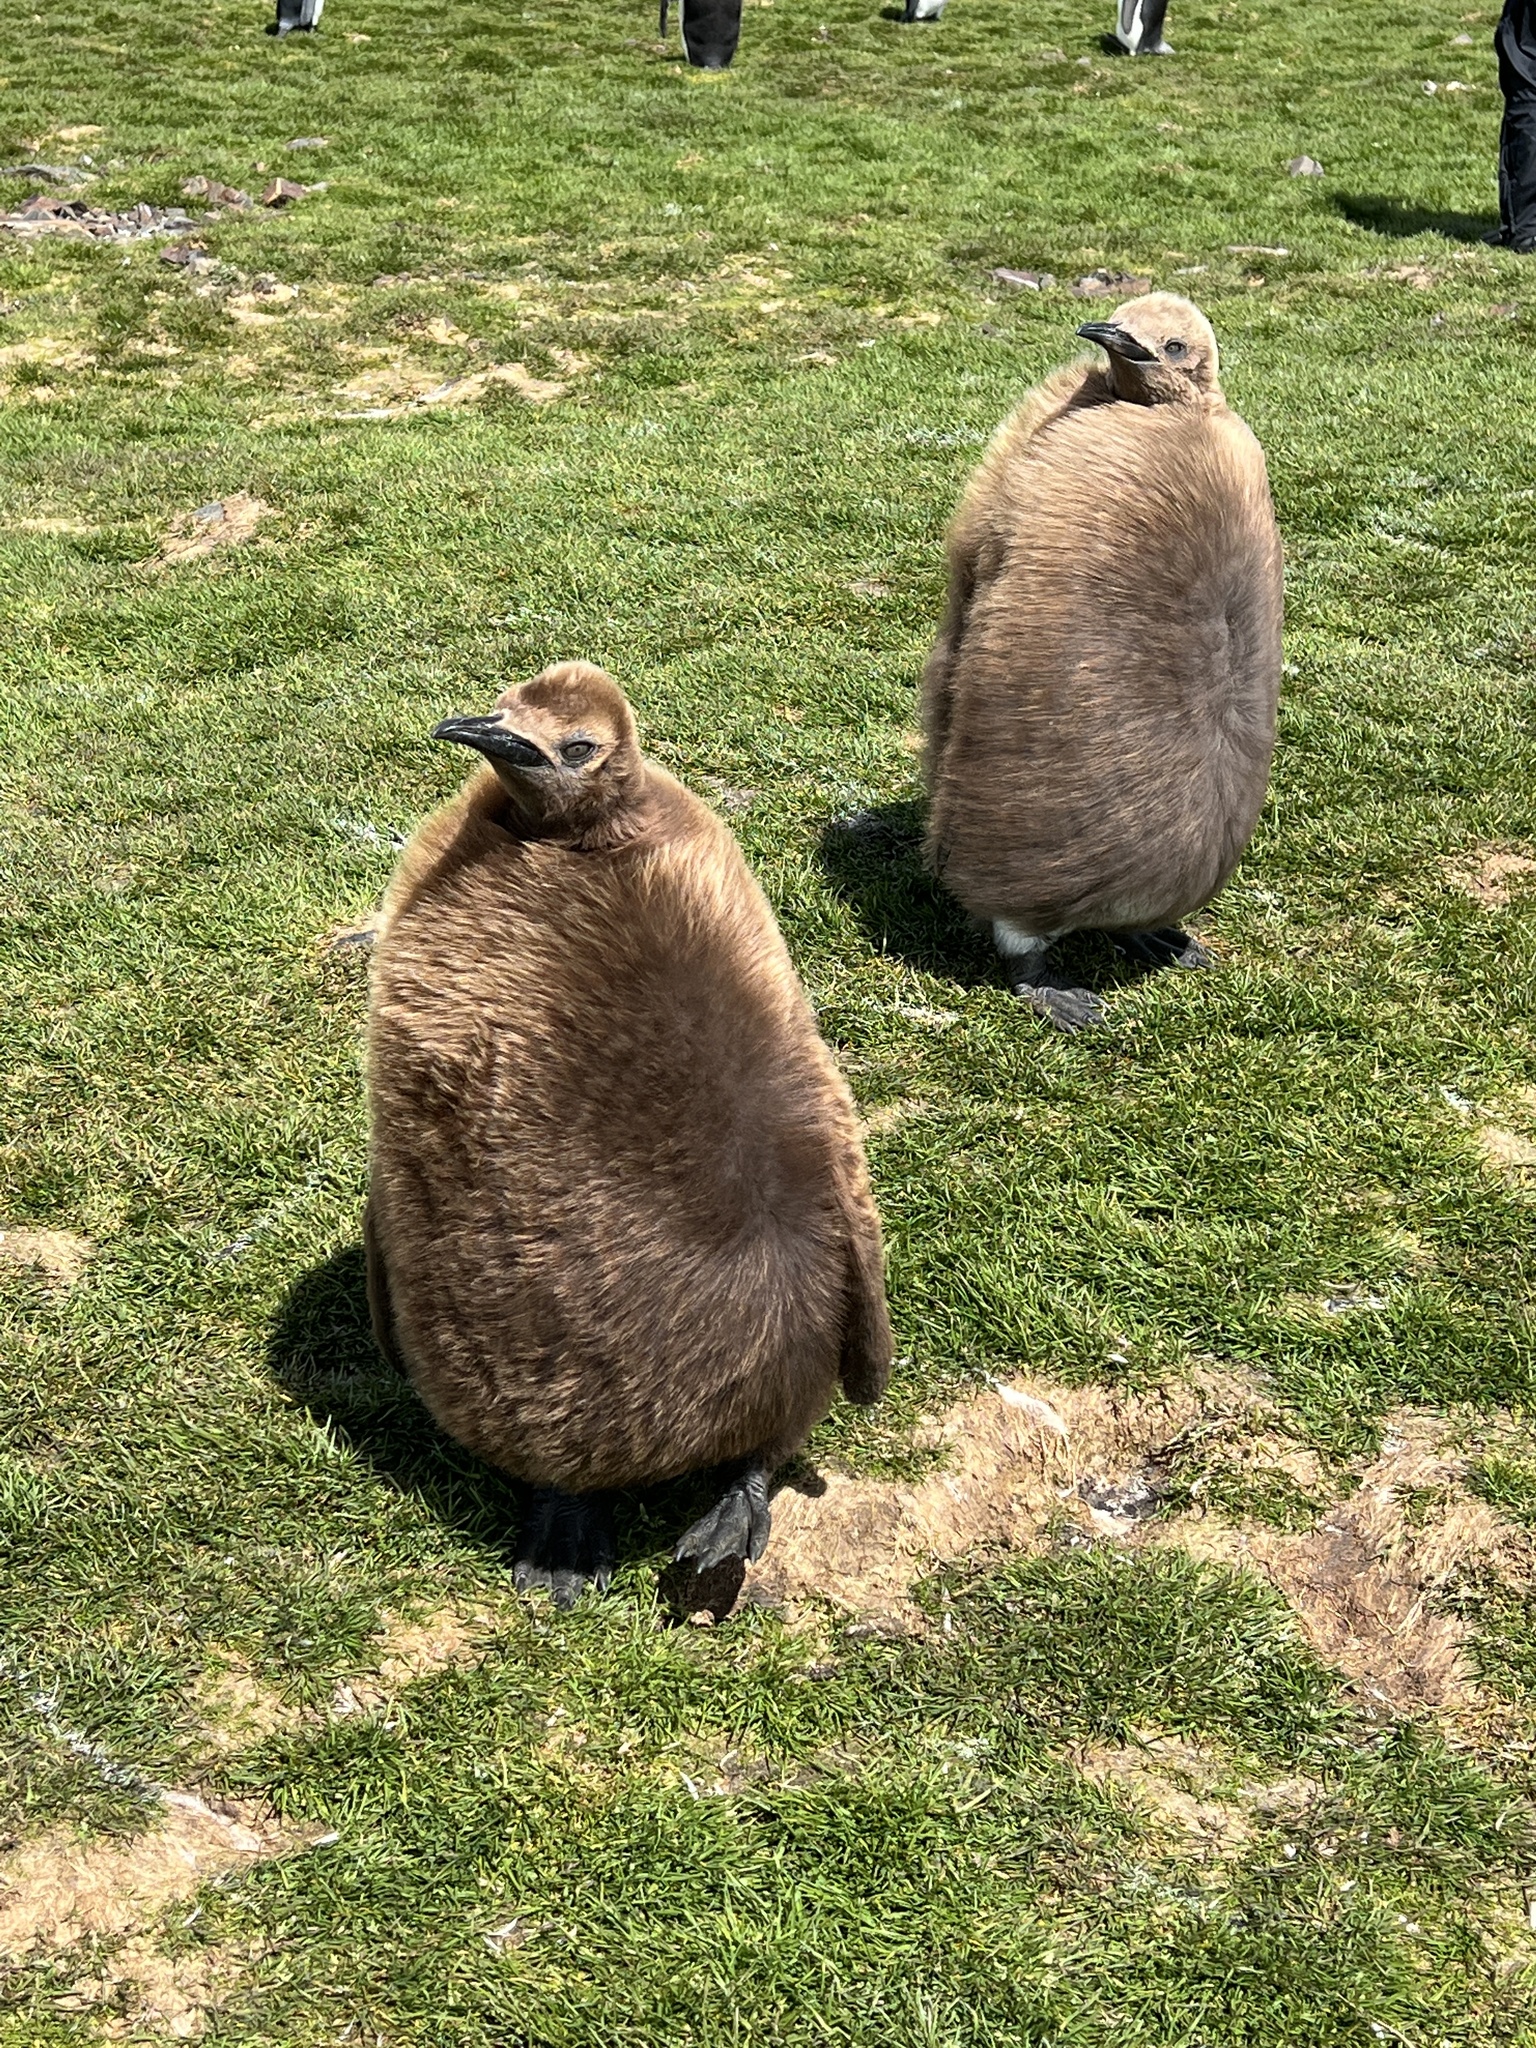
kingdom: Animalia
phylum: Chordata
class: Aves
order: Sphenisciformes
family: Spheniscidae
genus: Aptenodytes
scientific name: Aptenodytes patagonicus
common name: King penguin
